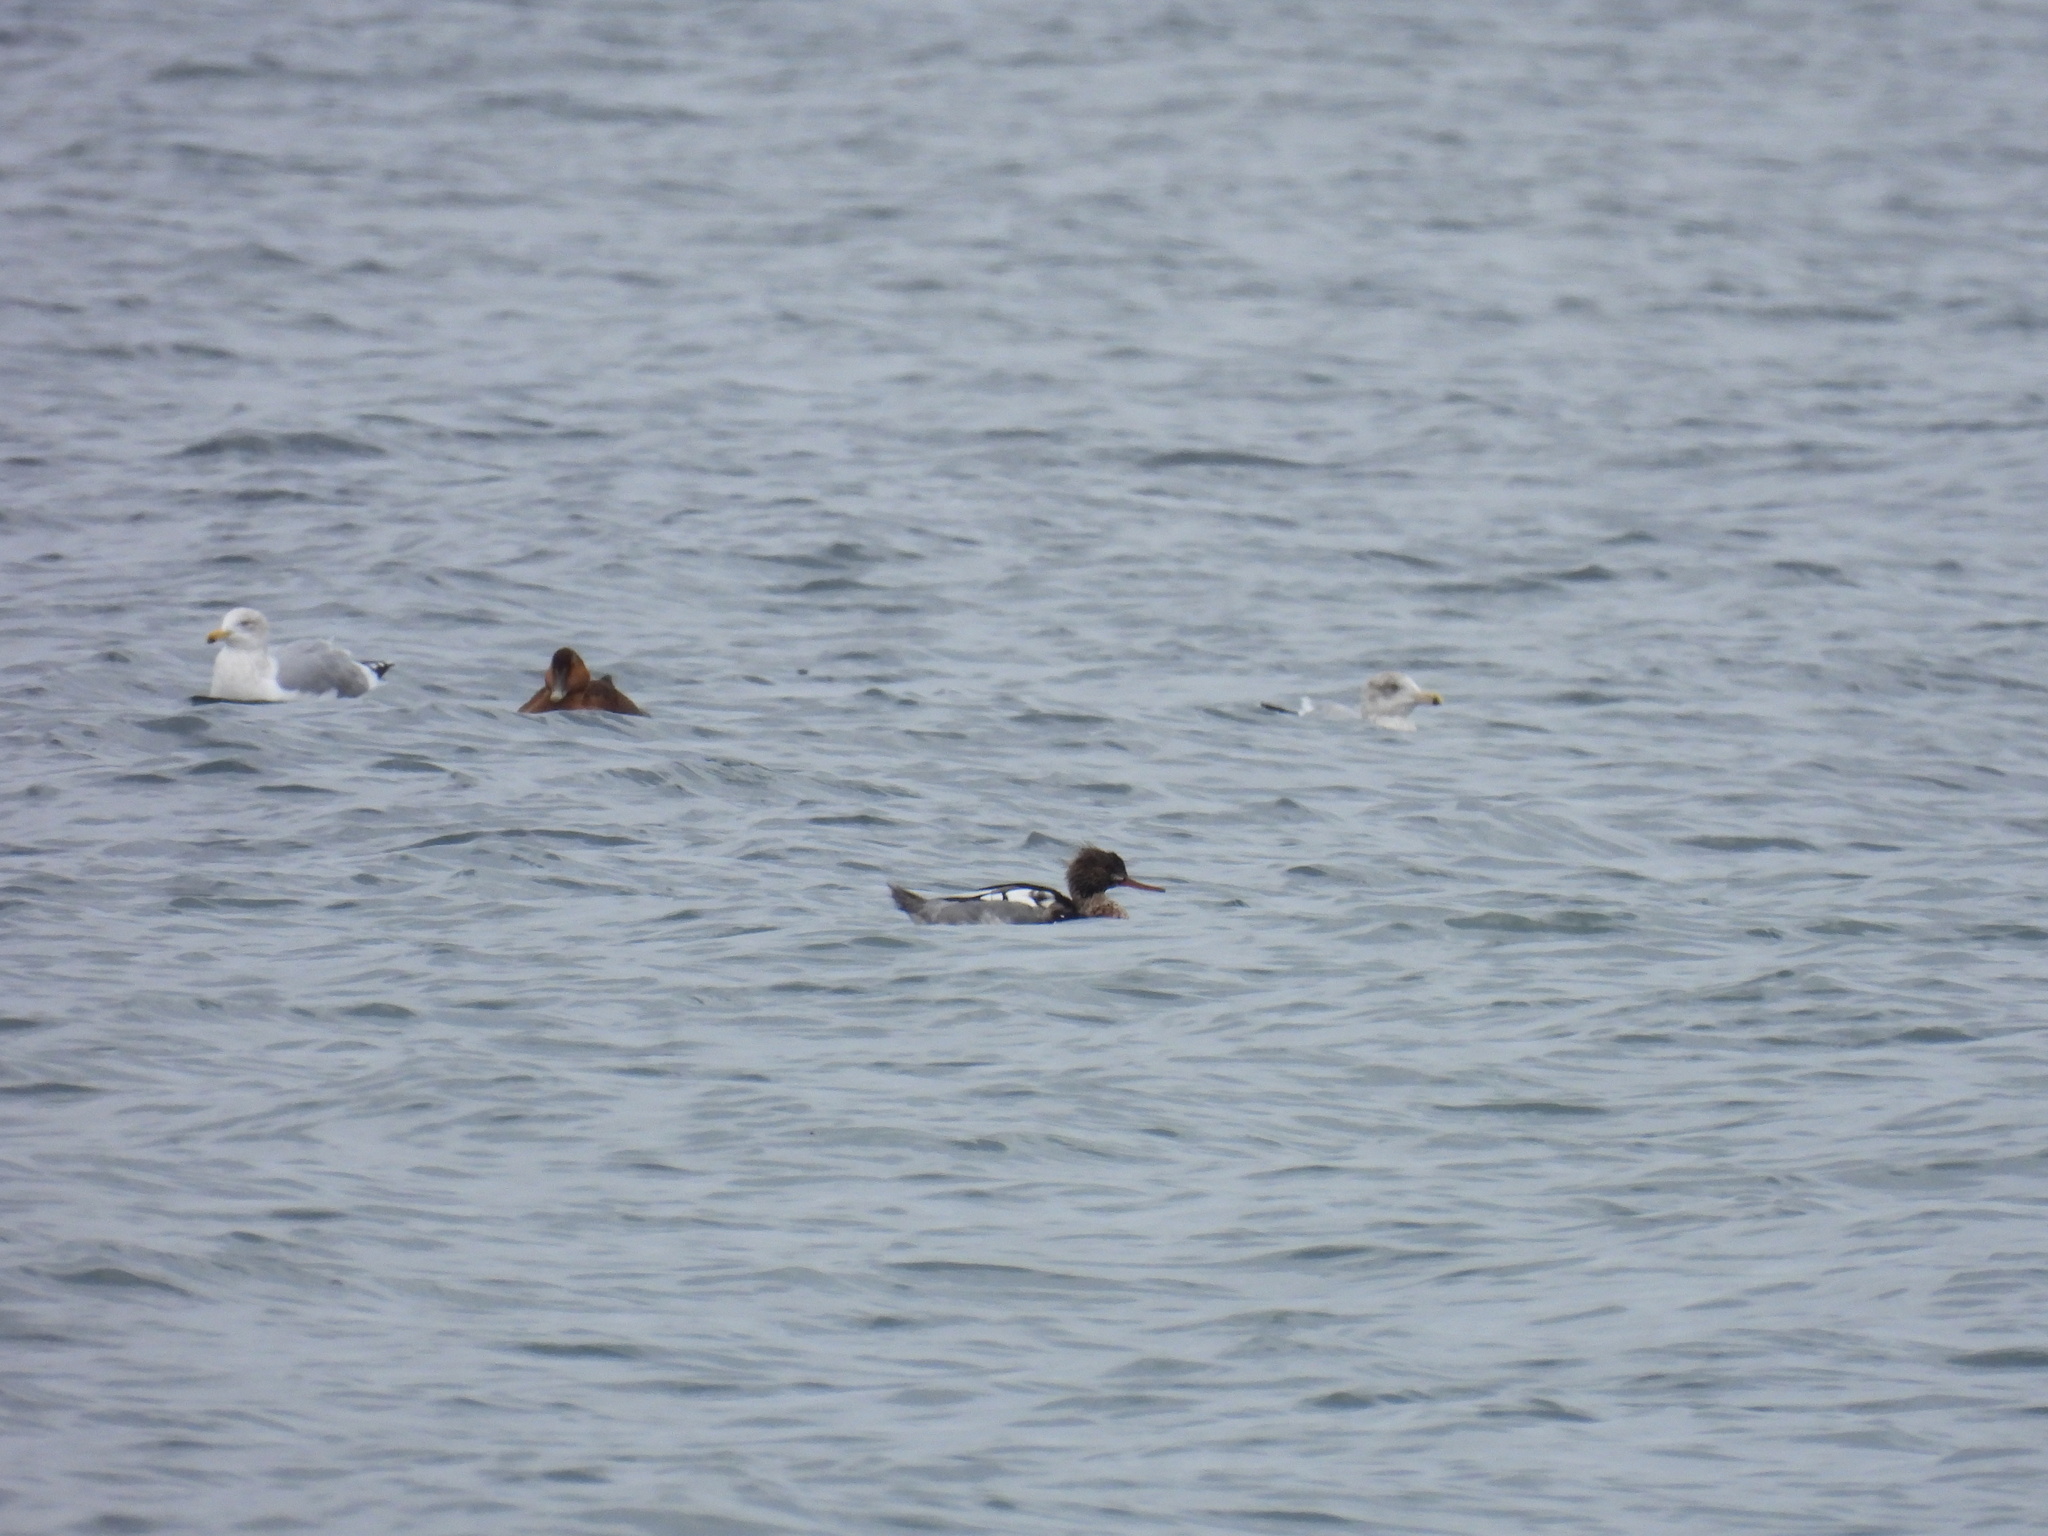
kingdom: Animalia
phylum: Chordata
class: Aves
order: Anseriformes
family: Anatidae
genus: Mergus
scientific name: Mergus serrator
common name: Red-breasted merganser
